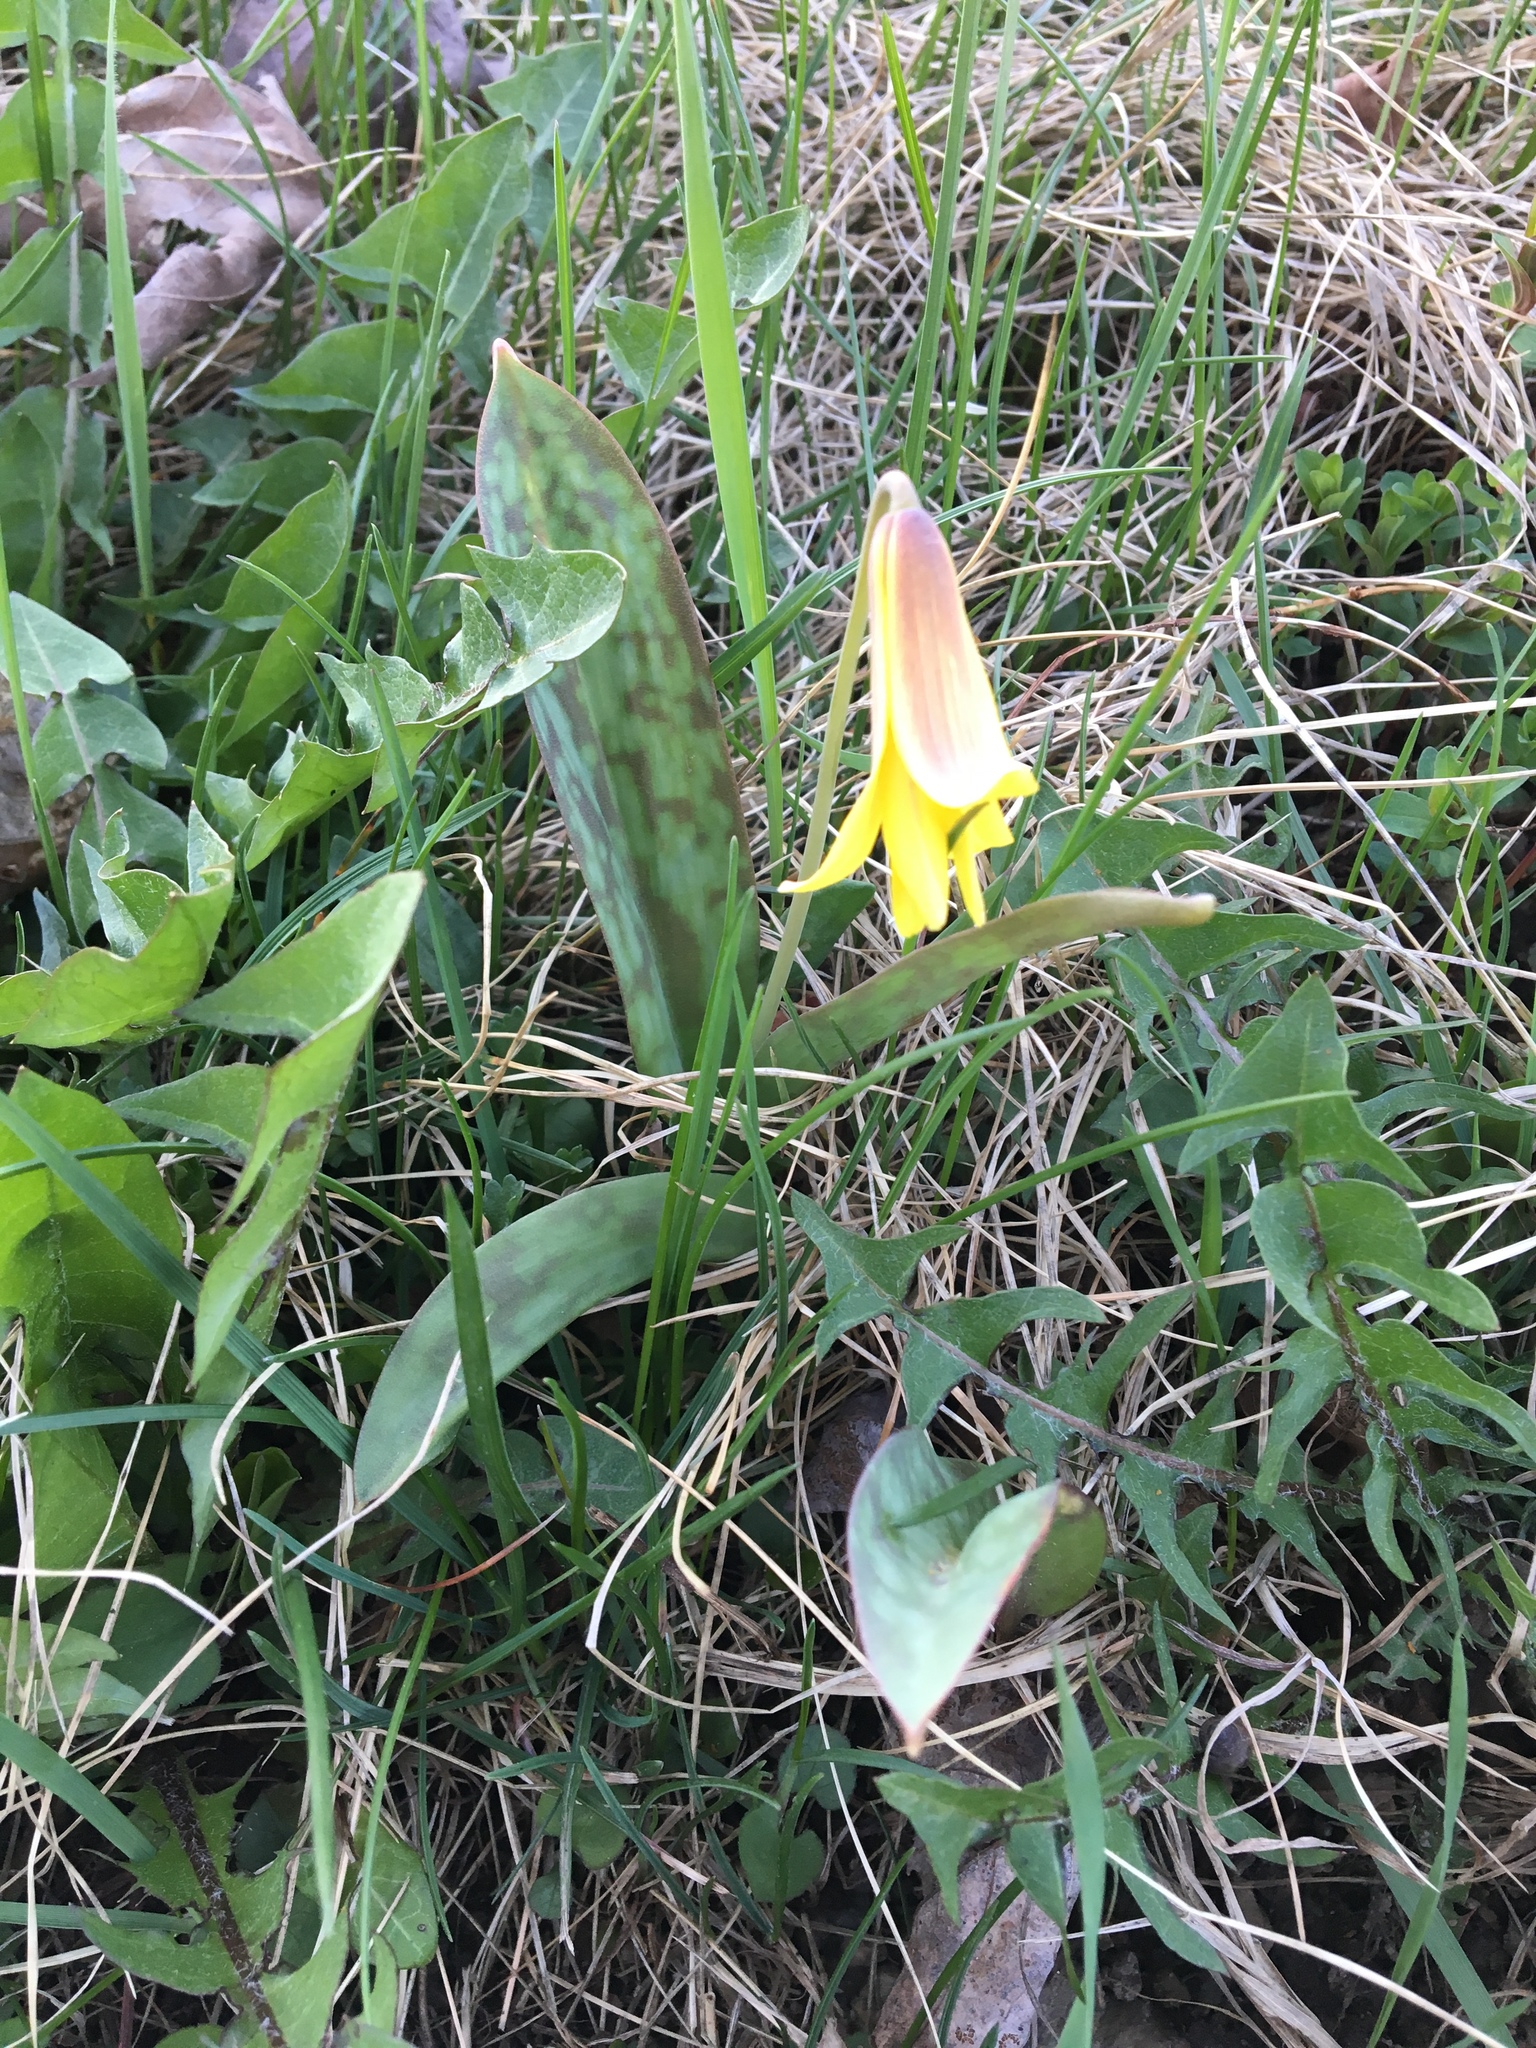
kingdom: Plantae
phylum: Tracheophyta
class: Liliopsida
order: Liliales
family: Liliaceae
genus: Erythronium
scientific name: Erythronium americanum
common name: Yellow adder's-tongue
